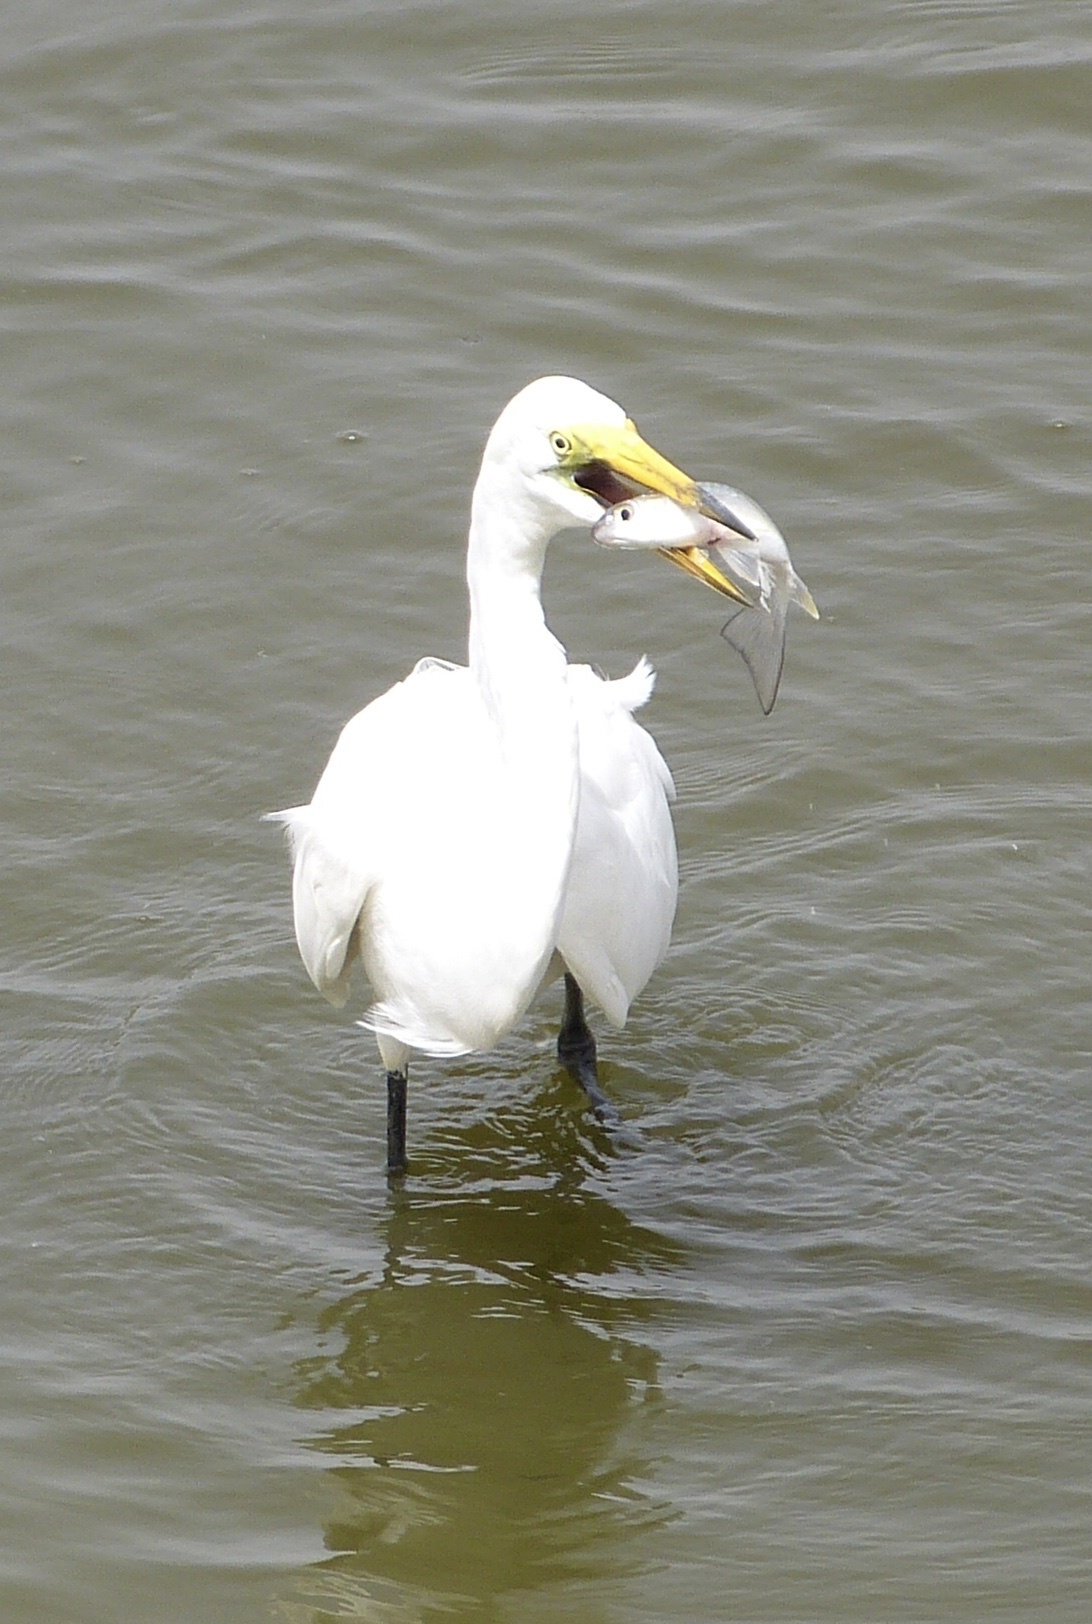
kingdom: Animalia
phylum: Chordata
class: Aves
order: Pelecaniformes
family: Ardeidae
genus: Ardea
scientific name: Ardea alba
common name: Great egret
